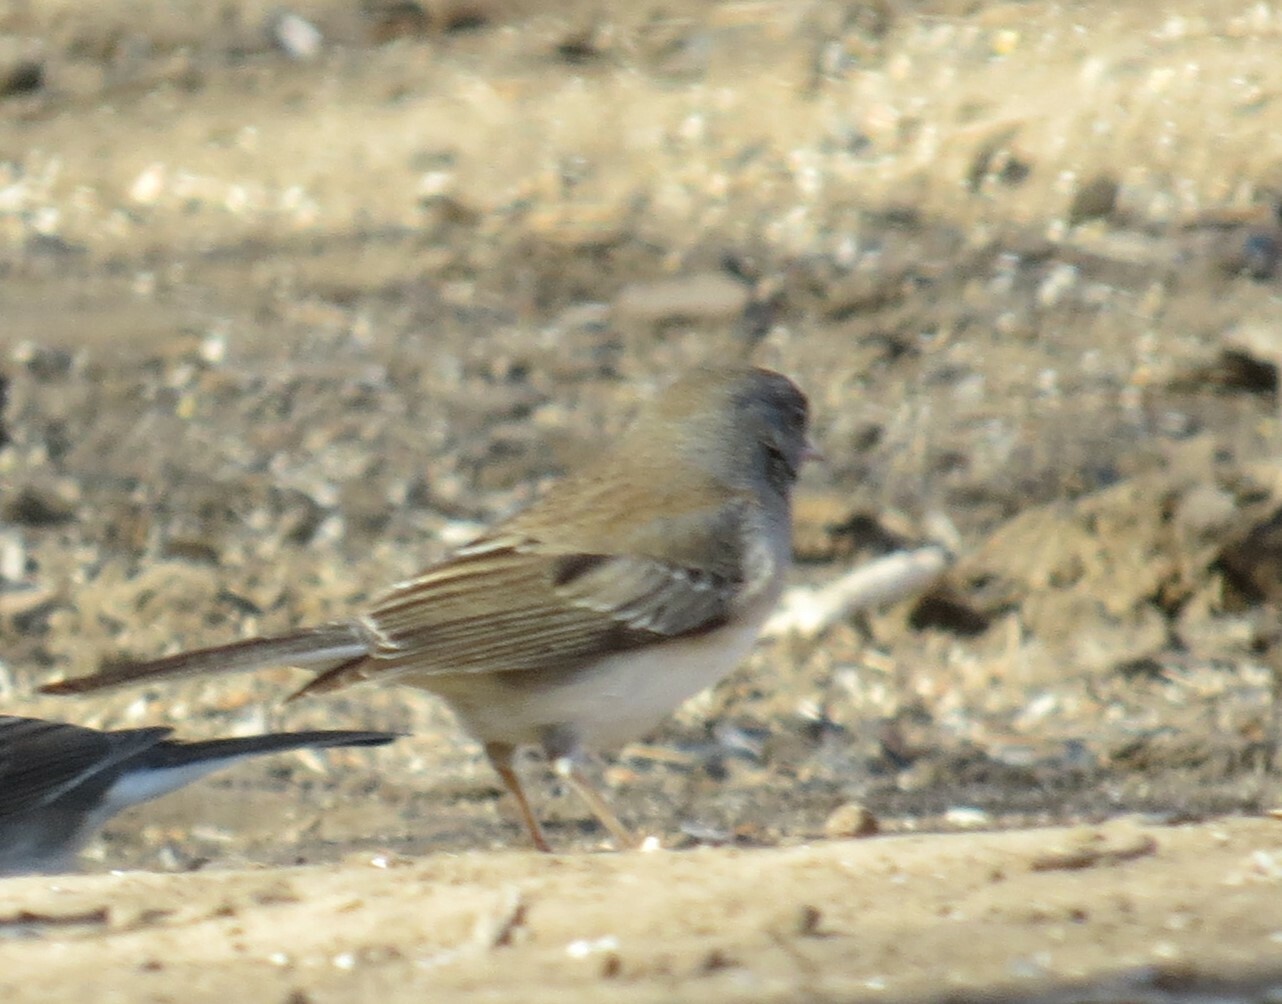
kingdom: Animalia
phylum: Chordata
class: Aves
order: Passeriformes
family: Passerellidae
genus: Junco
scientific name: Junco hyemalis
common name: Dark-eyed junco
